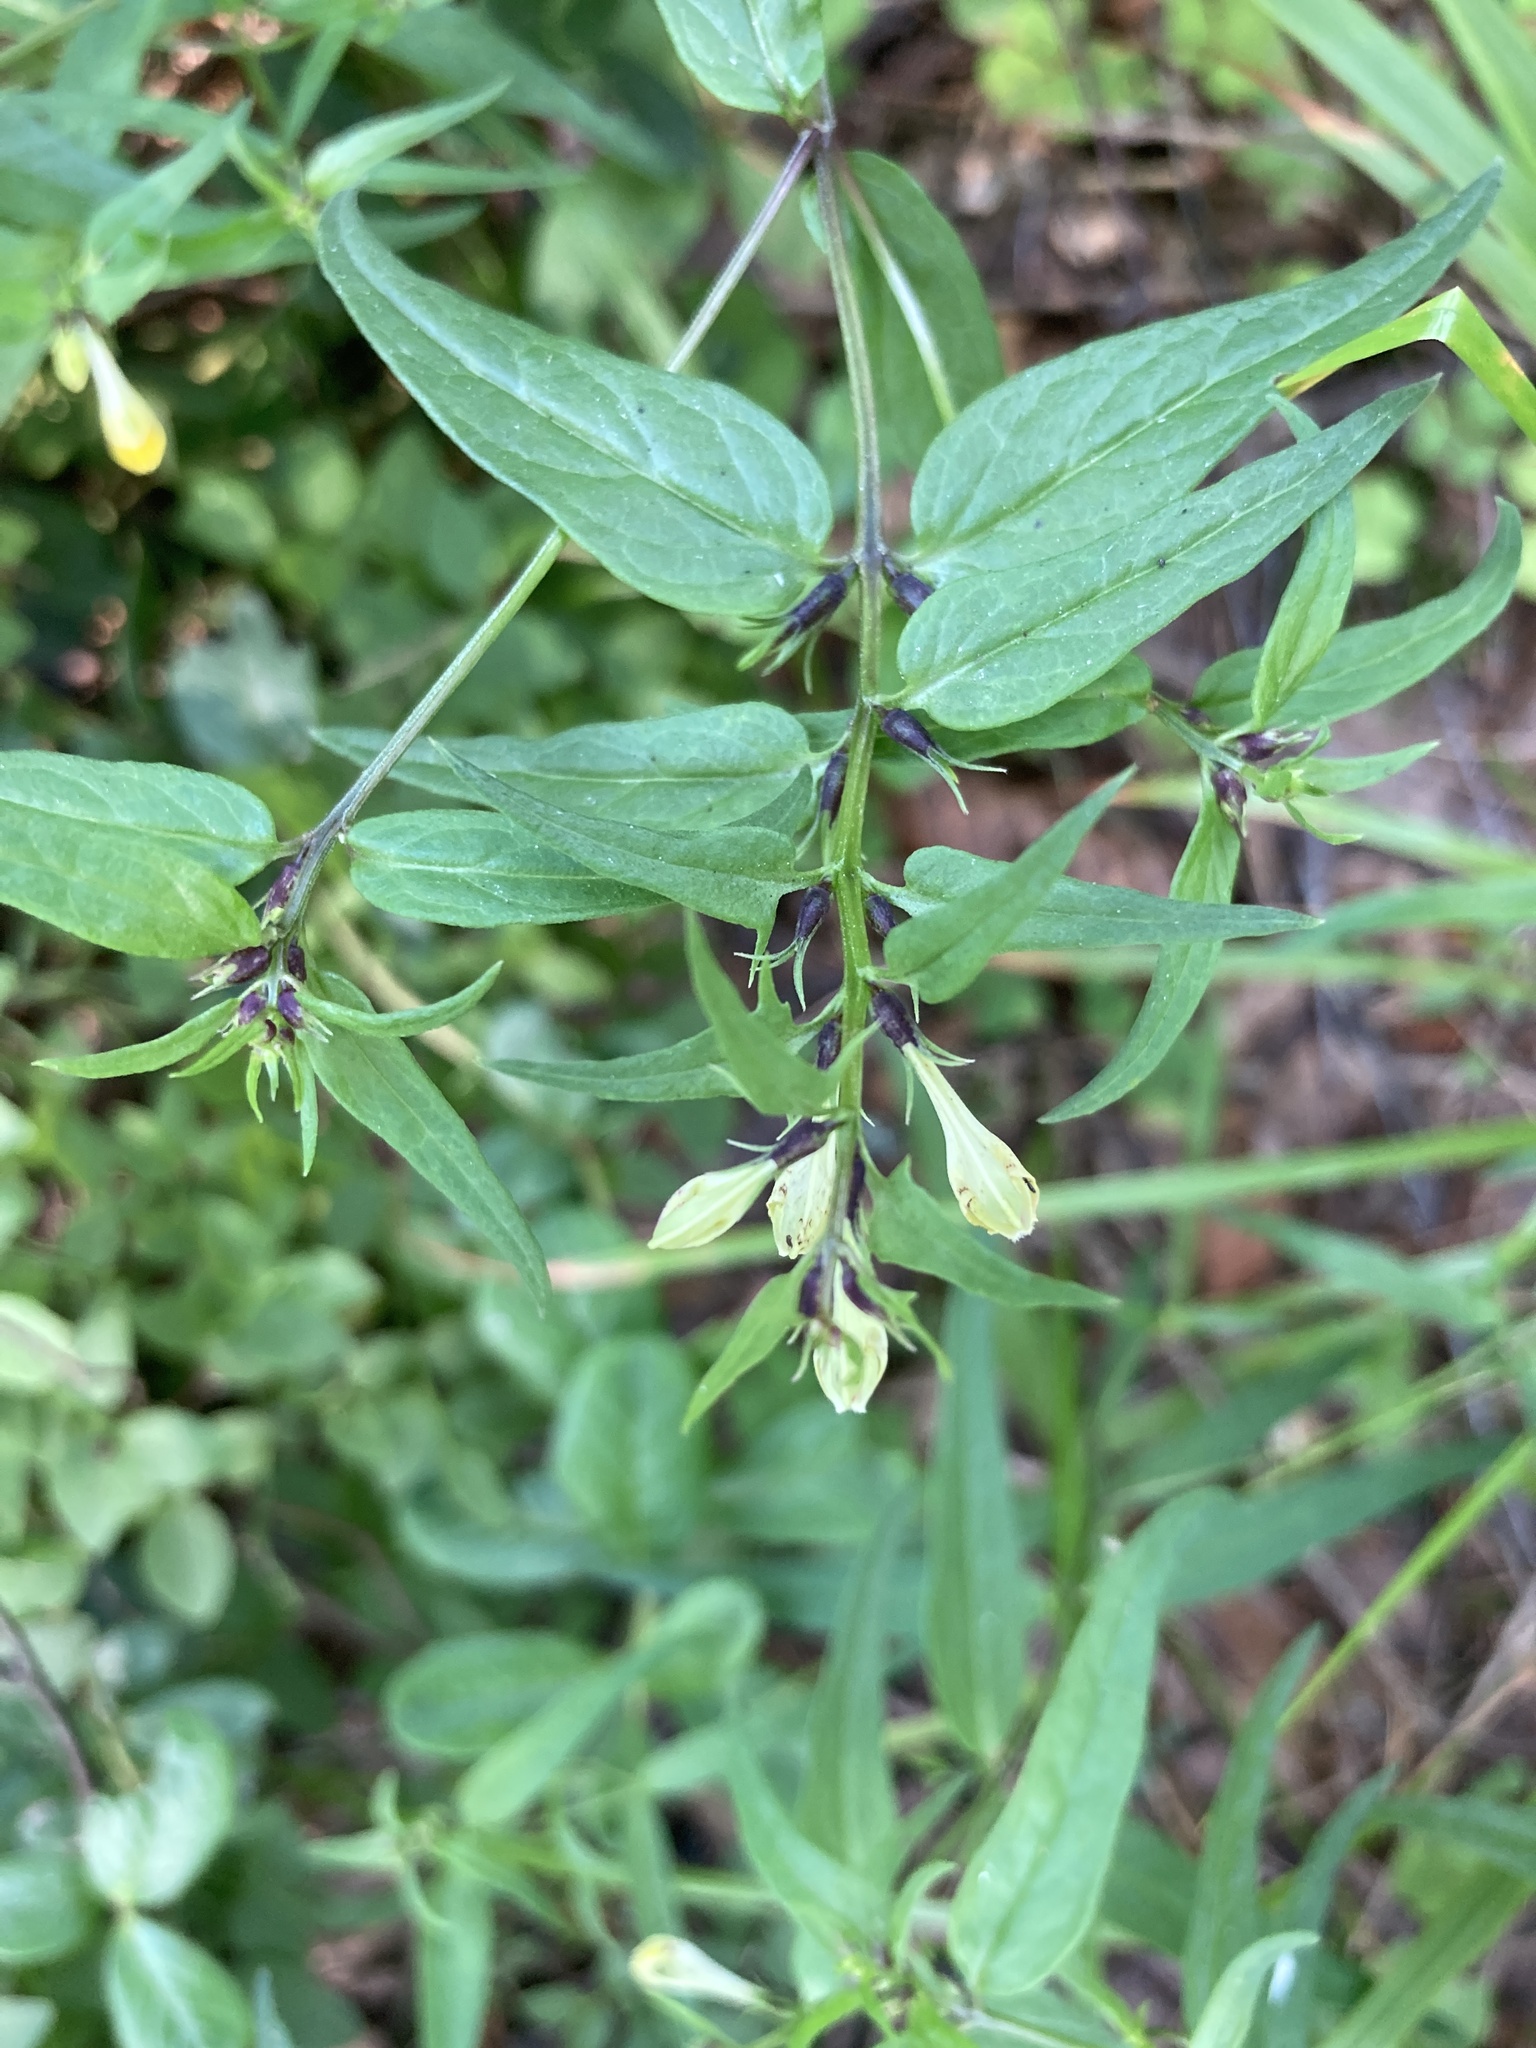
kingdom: Plantae
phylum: Tracheophyta
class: Magnoliopsida
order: Lamiales
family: Orobanchaceae
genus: Melampyrum
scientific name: Melampyrum pratense
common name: Common cow-wheat
